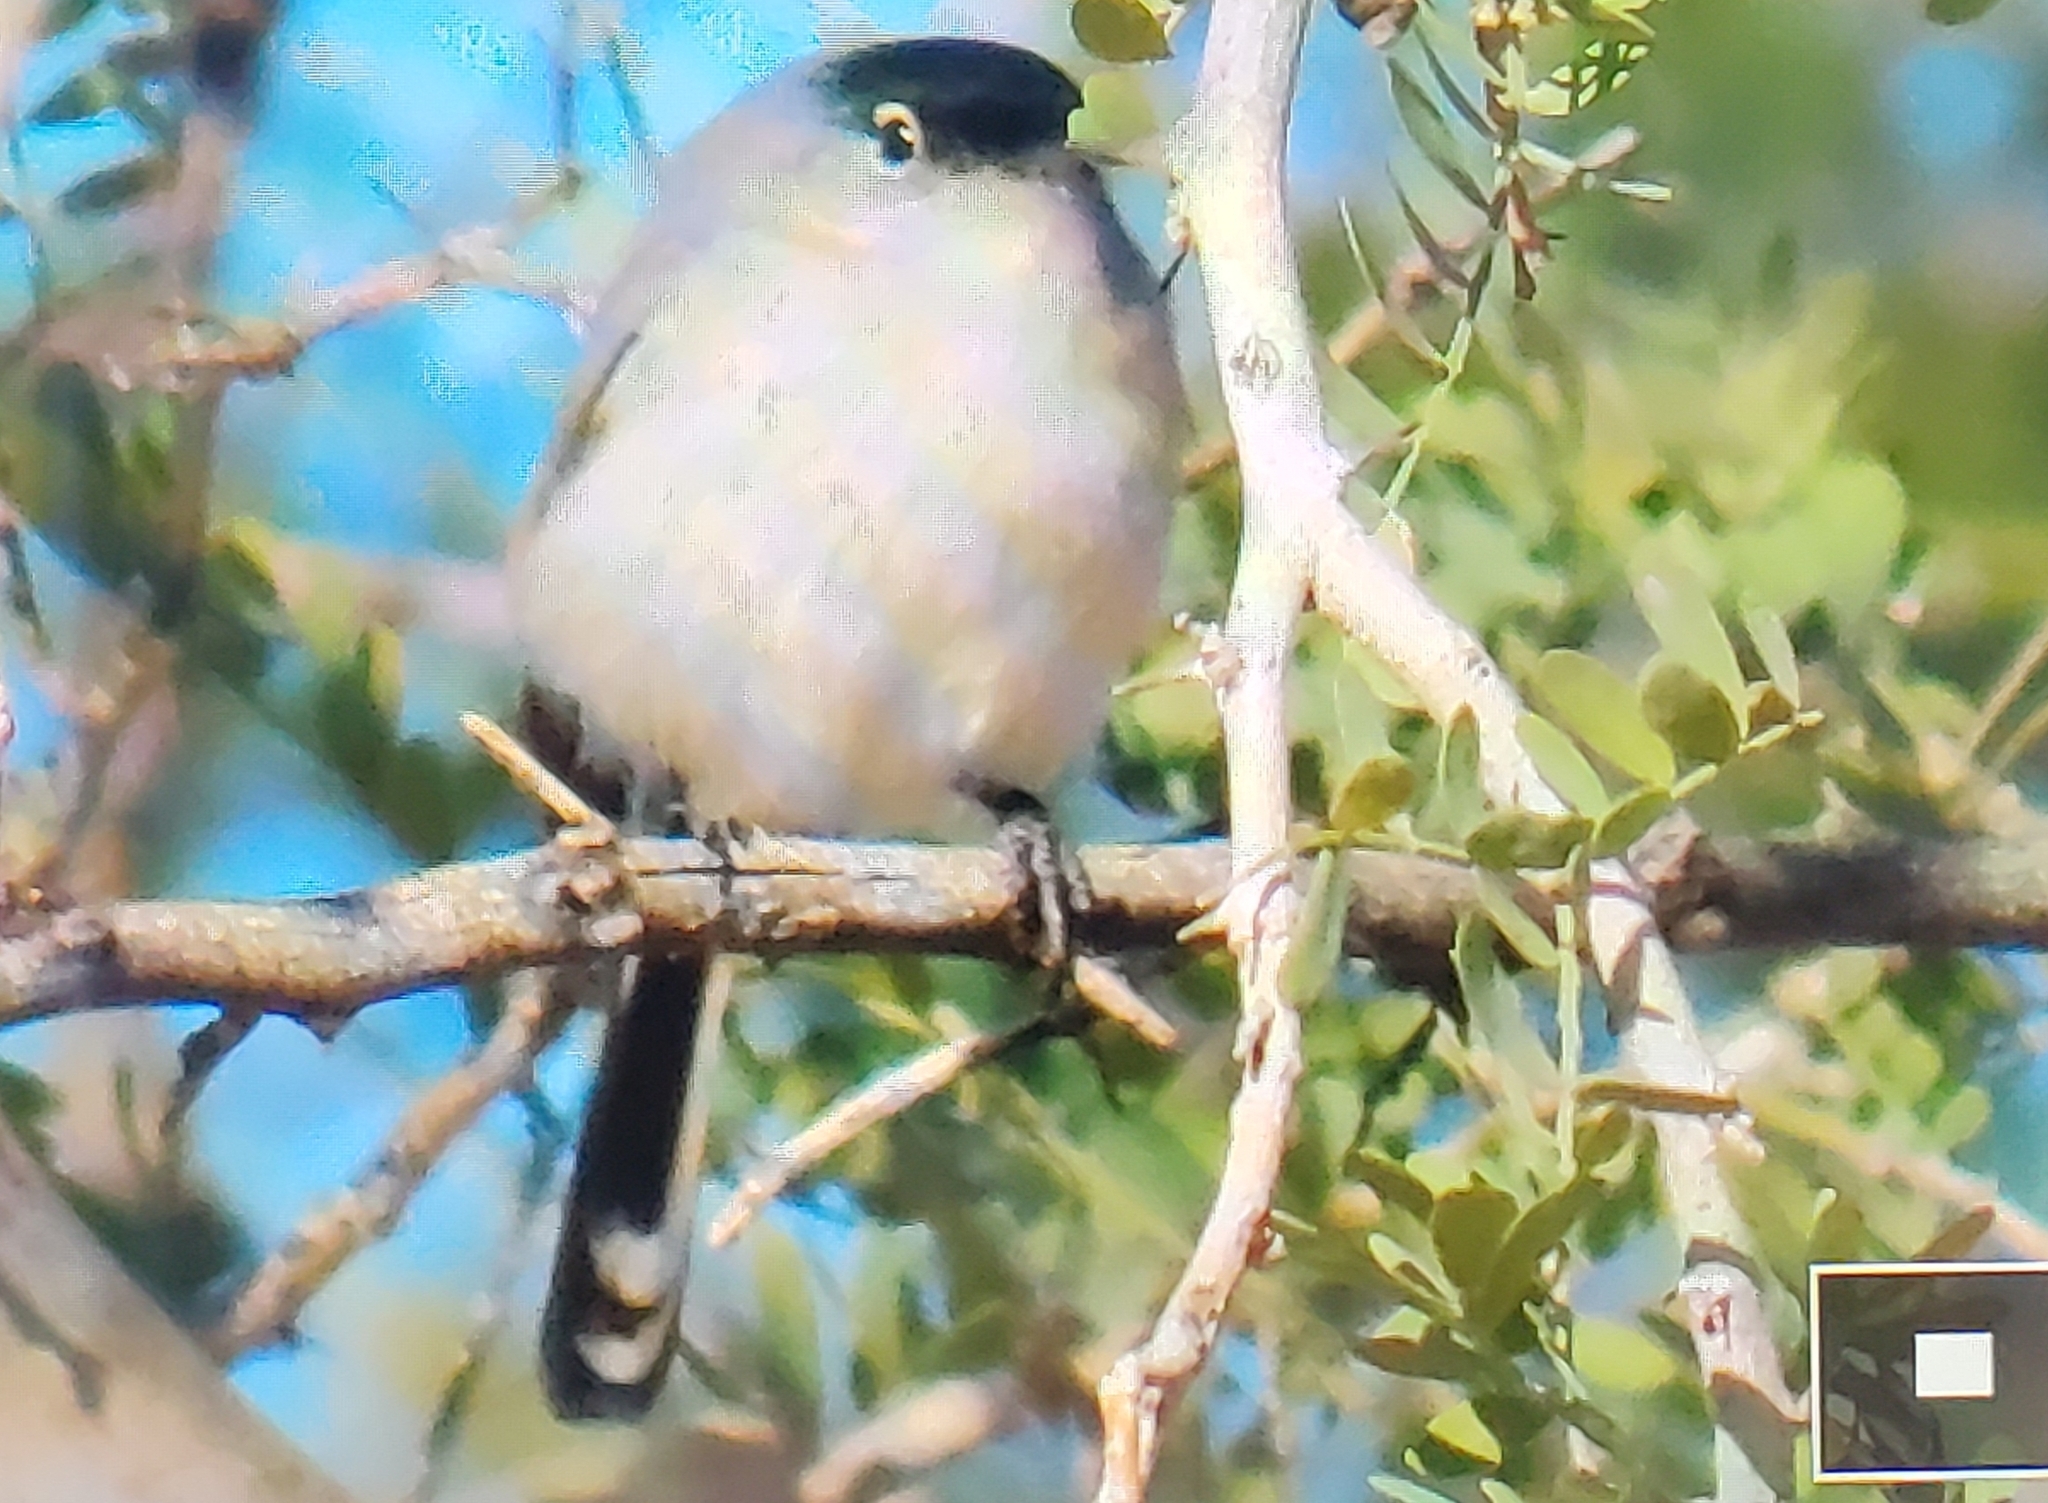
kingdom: Animalia
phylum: Chordata
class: Aves
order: Passeriformes
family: Polioptilidae
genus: Polioptila
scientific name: Polioptila melanura
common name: Black-tailed gnatcatcher
